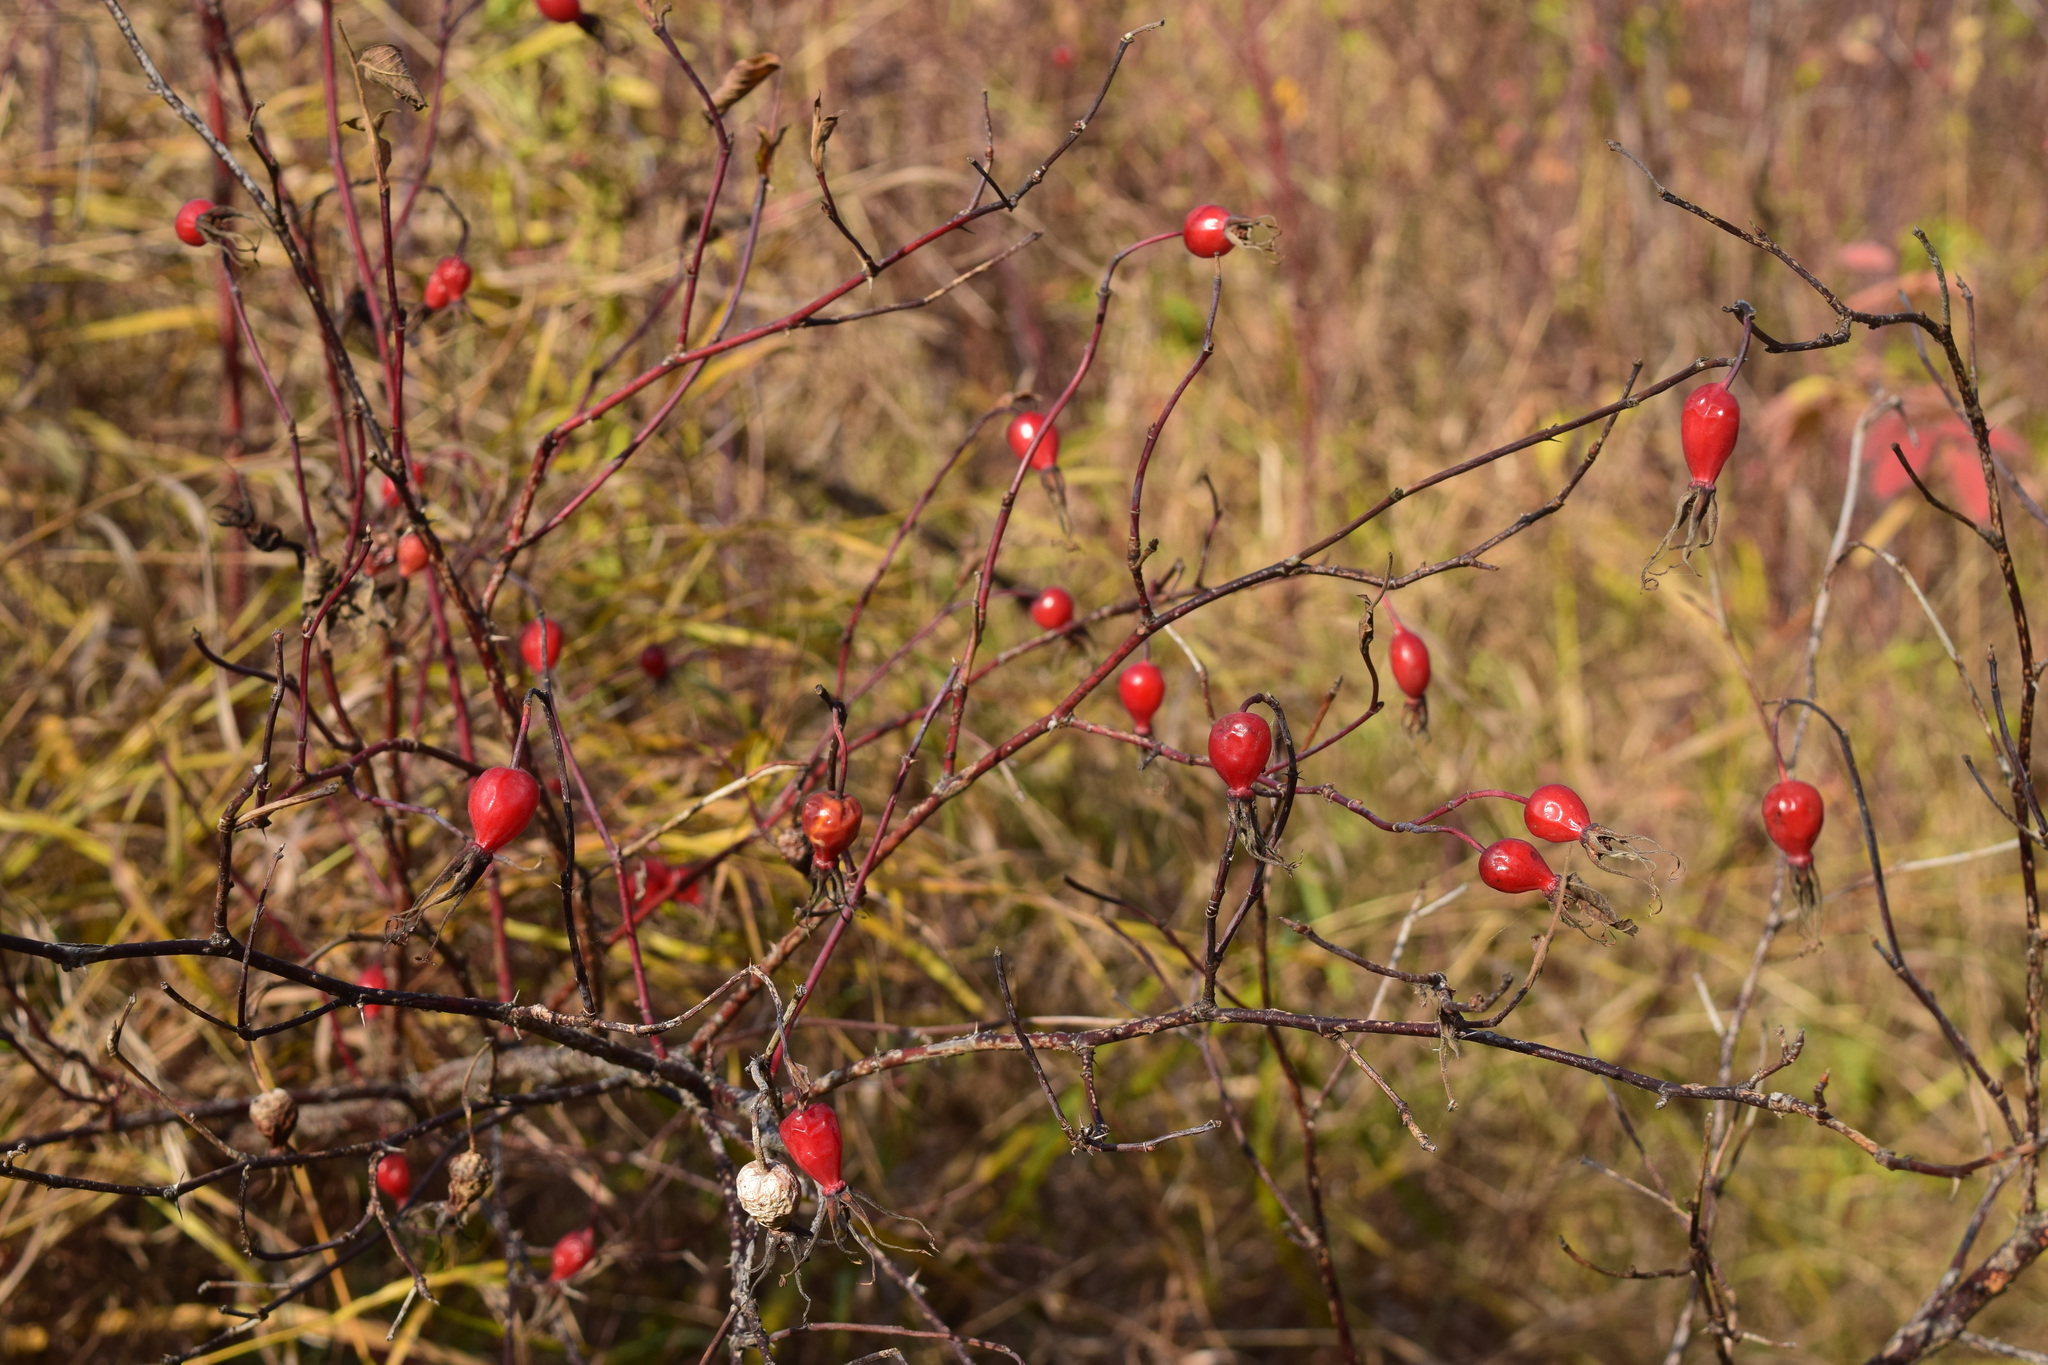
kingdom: Plantae
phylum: Tracheophyta
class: Magnoliopsida
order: Rosales
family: Rosaceae
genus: Rosa
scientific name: Rosa majalis
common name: Cinnamon rose
